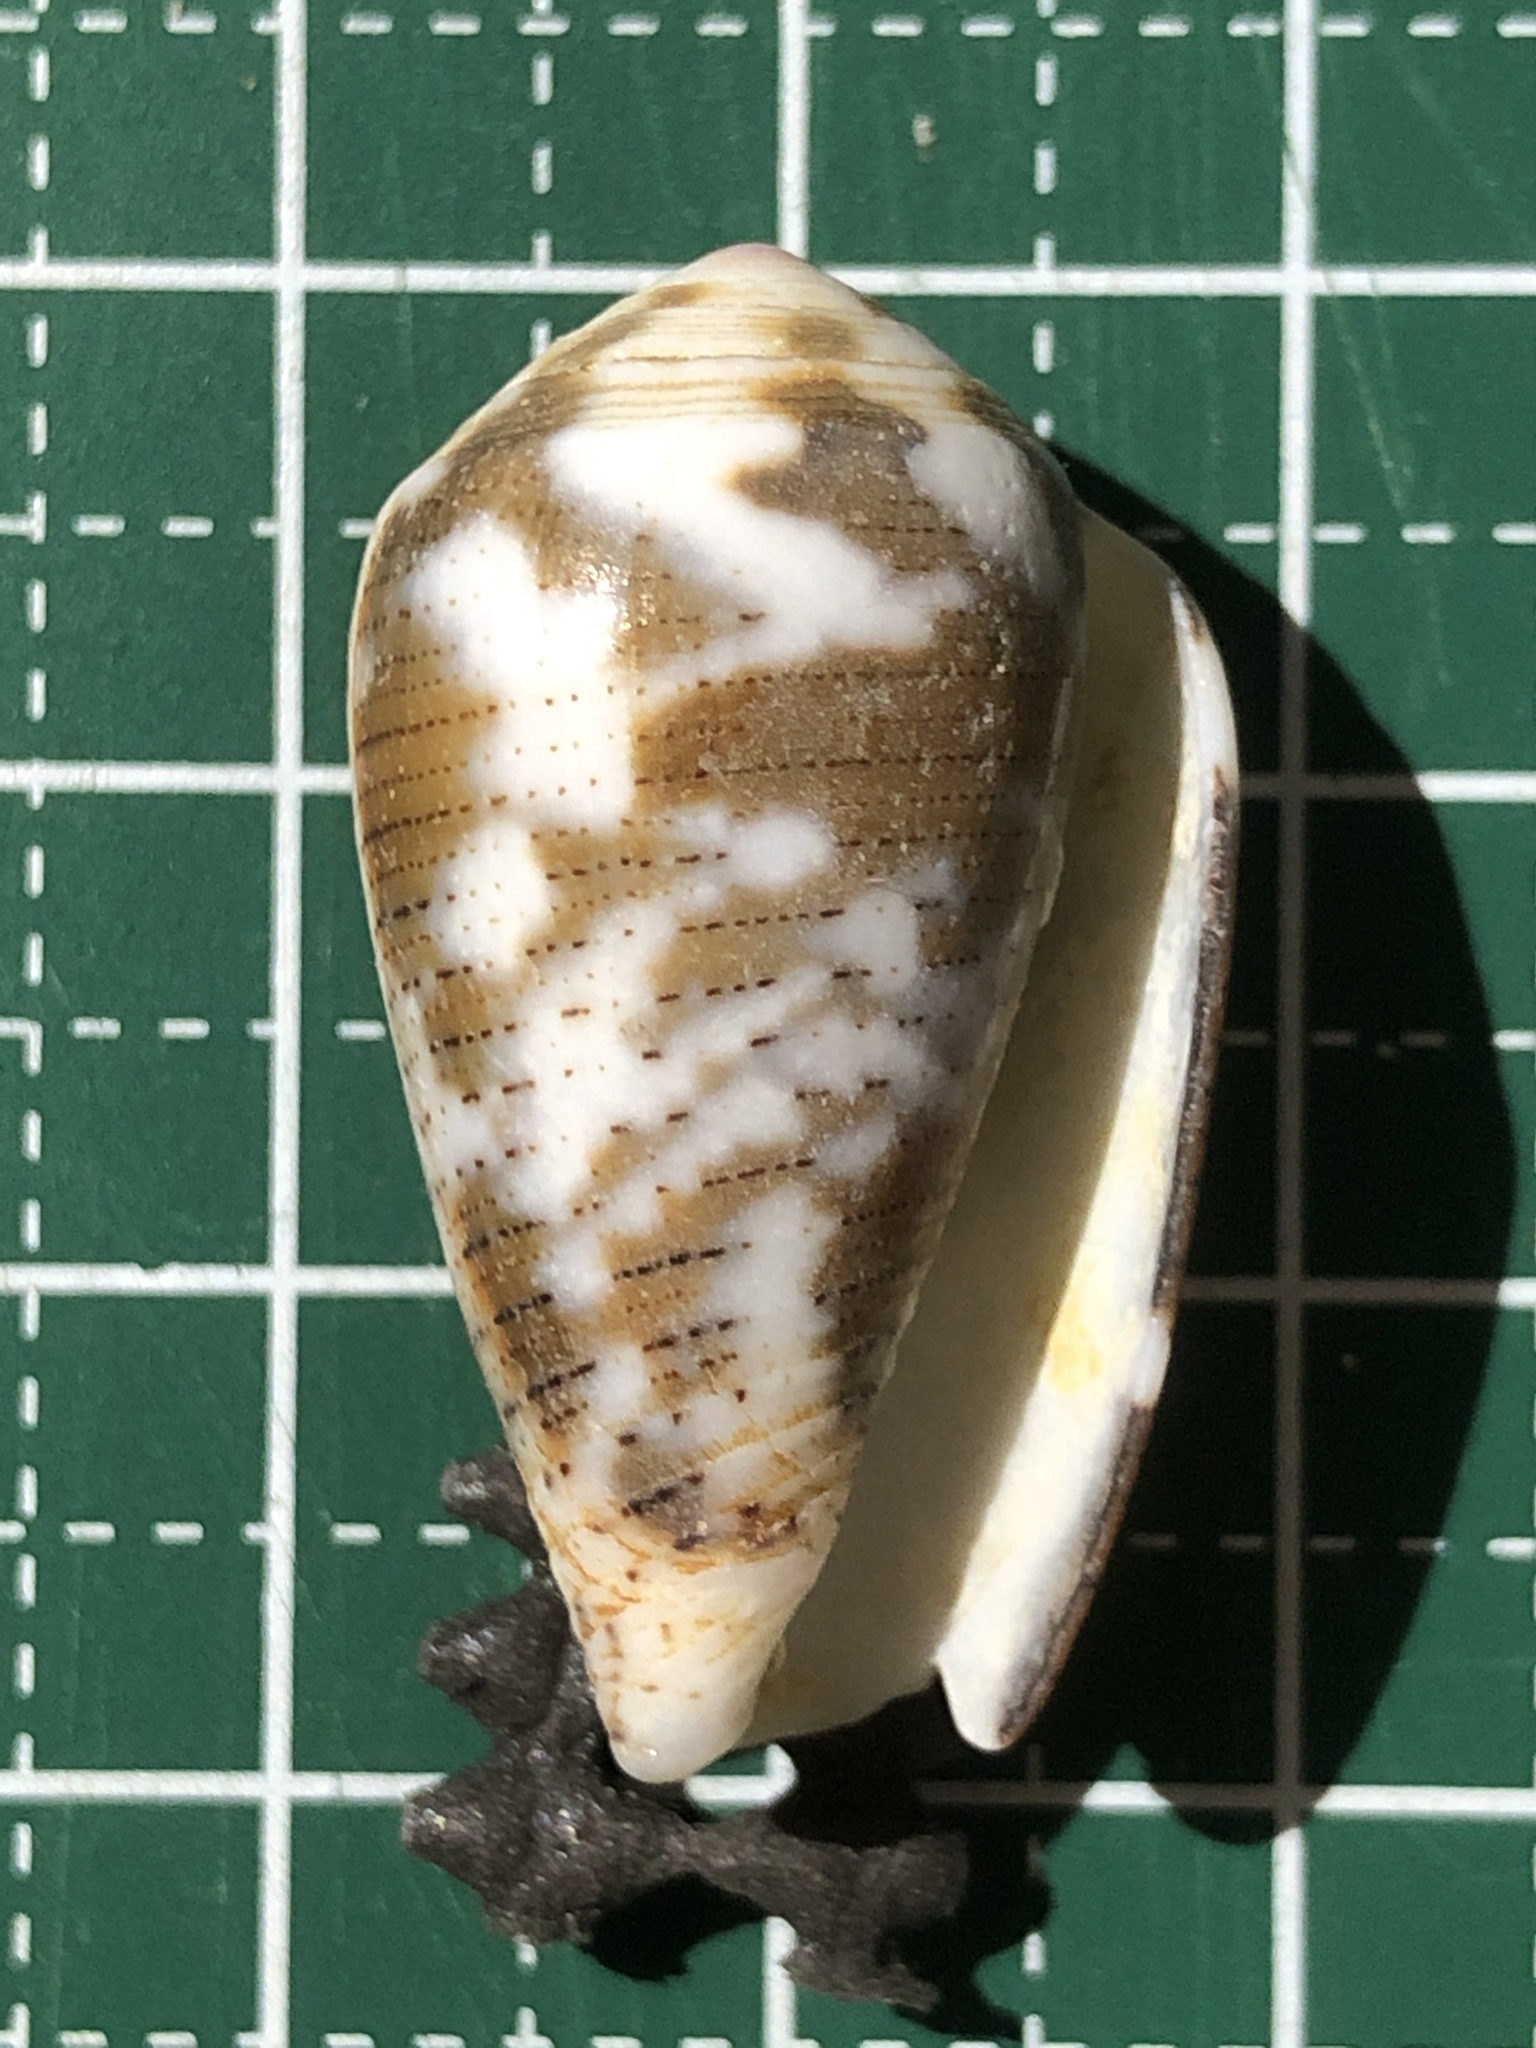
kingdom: Animalia
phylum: Mollusca
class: Gastropoda
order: Neogastropoda
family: Conidae
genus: Conus
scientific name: Conus striolatus
